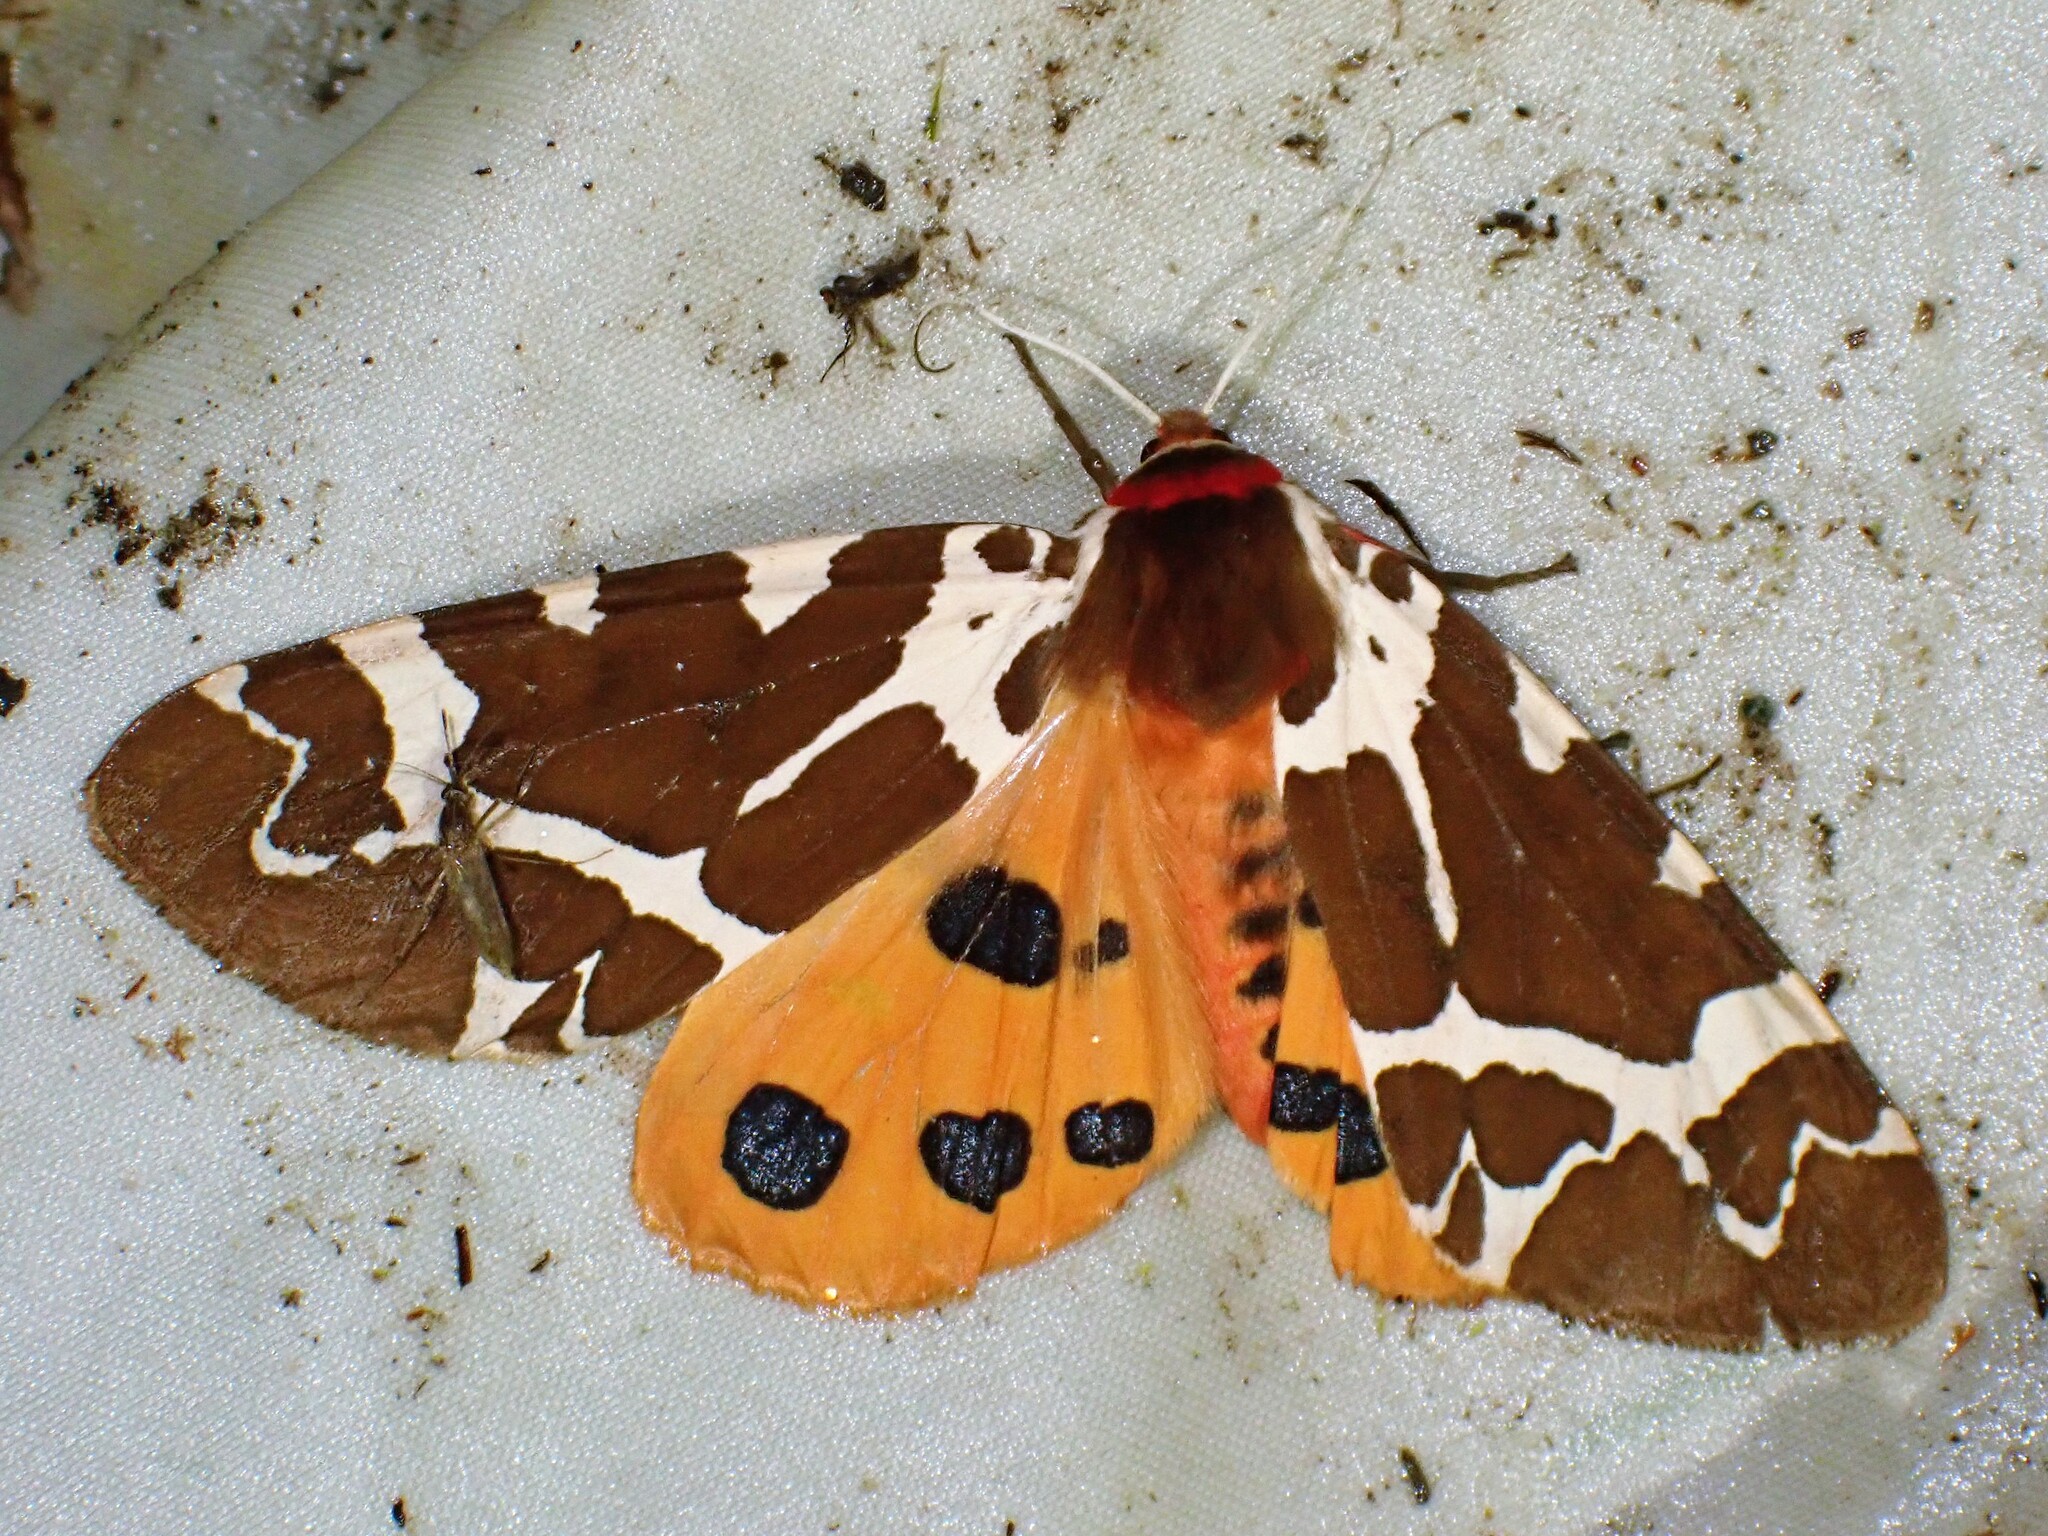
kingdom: Animalia
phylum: Arthropoda
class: Insecta
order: Lepidoptera
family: Erebidae
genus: Arctia
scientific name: Arctia caja
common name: Garden tiger
